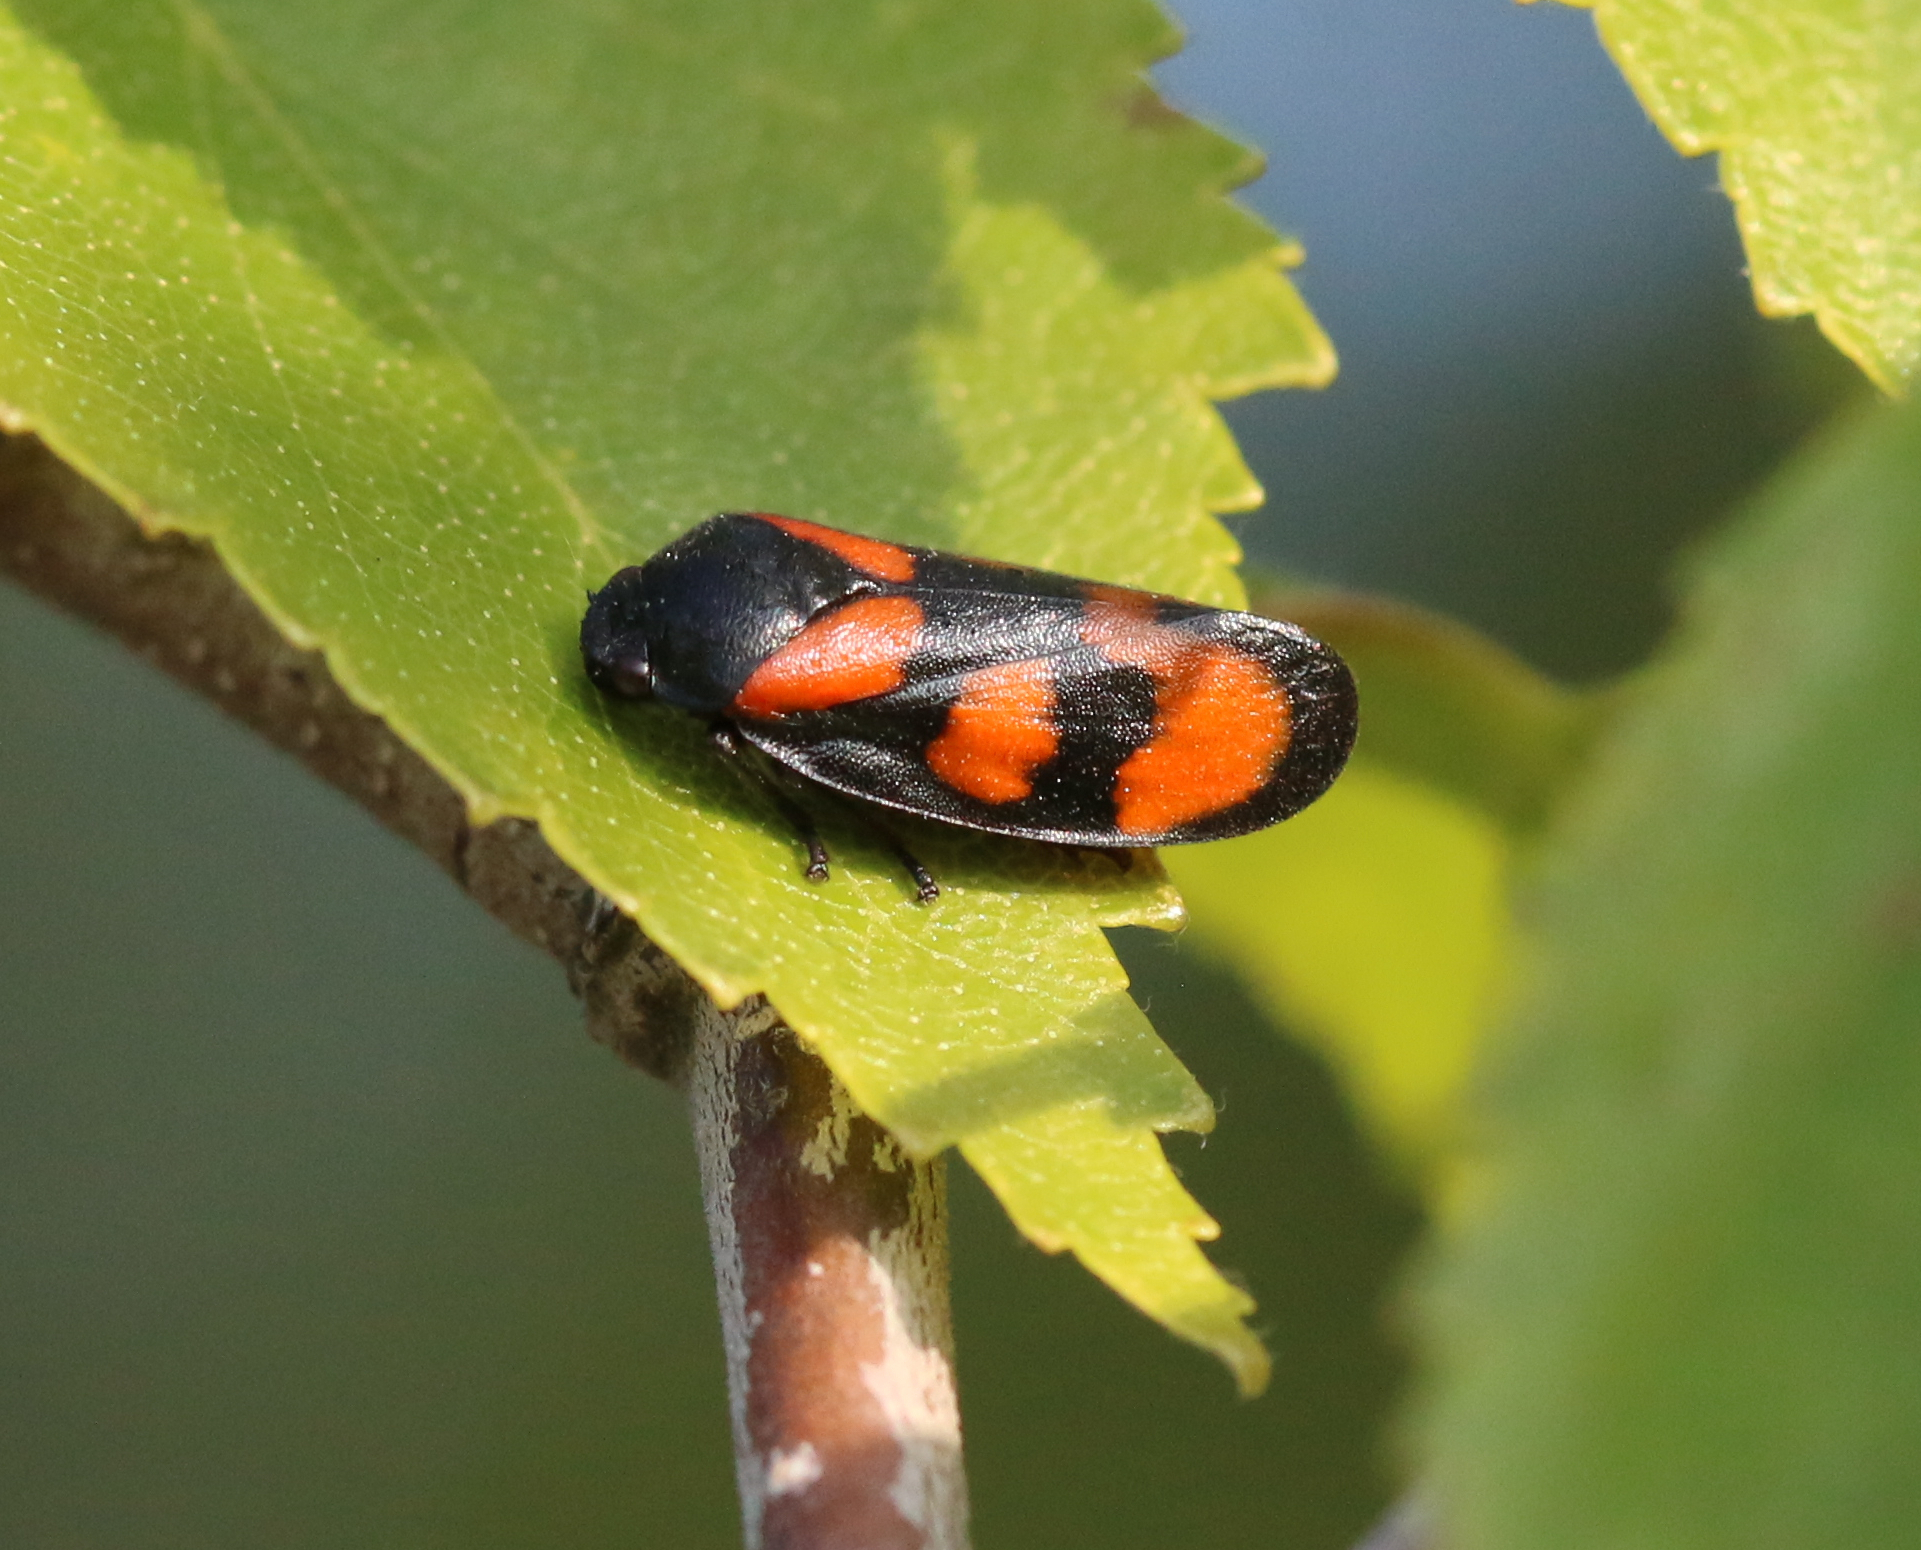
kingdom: Animalia
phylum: Arthropoda
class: Insecta
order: Hemiptera
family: Cercopidae
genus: Cercopis
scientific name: Cercopis vulnerata
